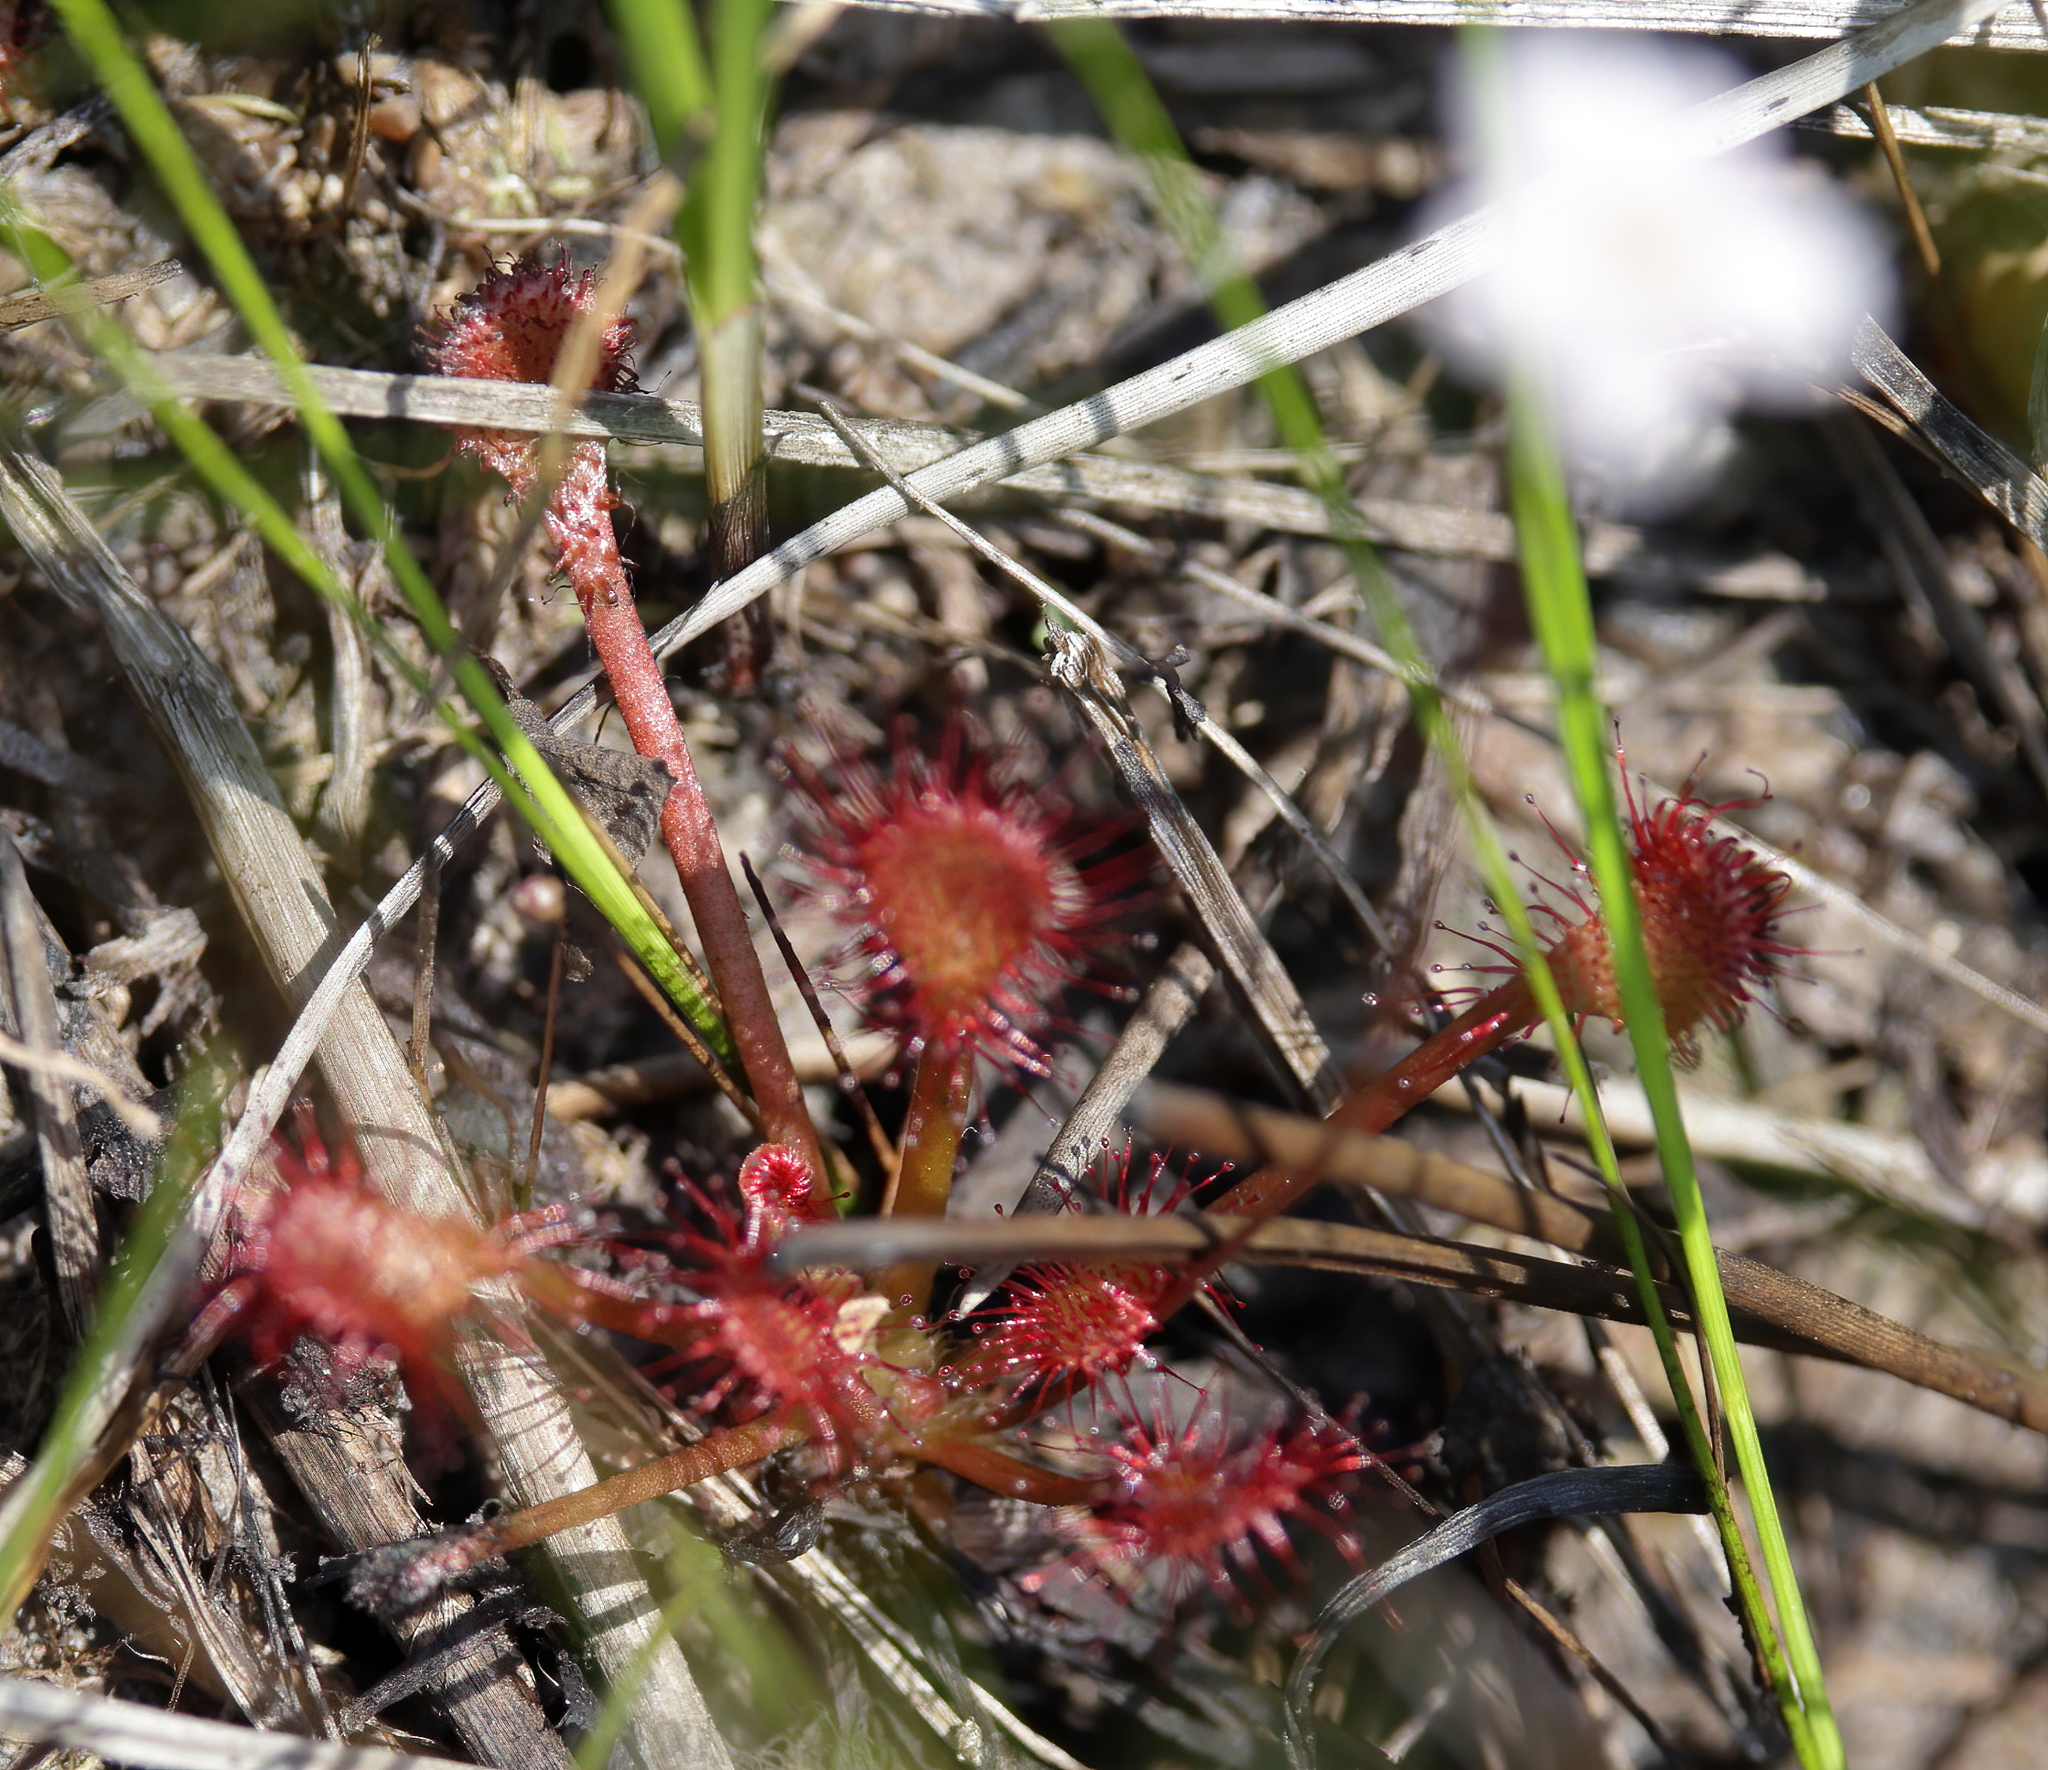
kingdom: Plantae
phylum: Tracheophyta
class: Magnoliopsida
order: Caryophyllales
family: Droseraceae
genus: Drosera
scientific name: Drosera capillaris
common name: Pink sundew
